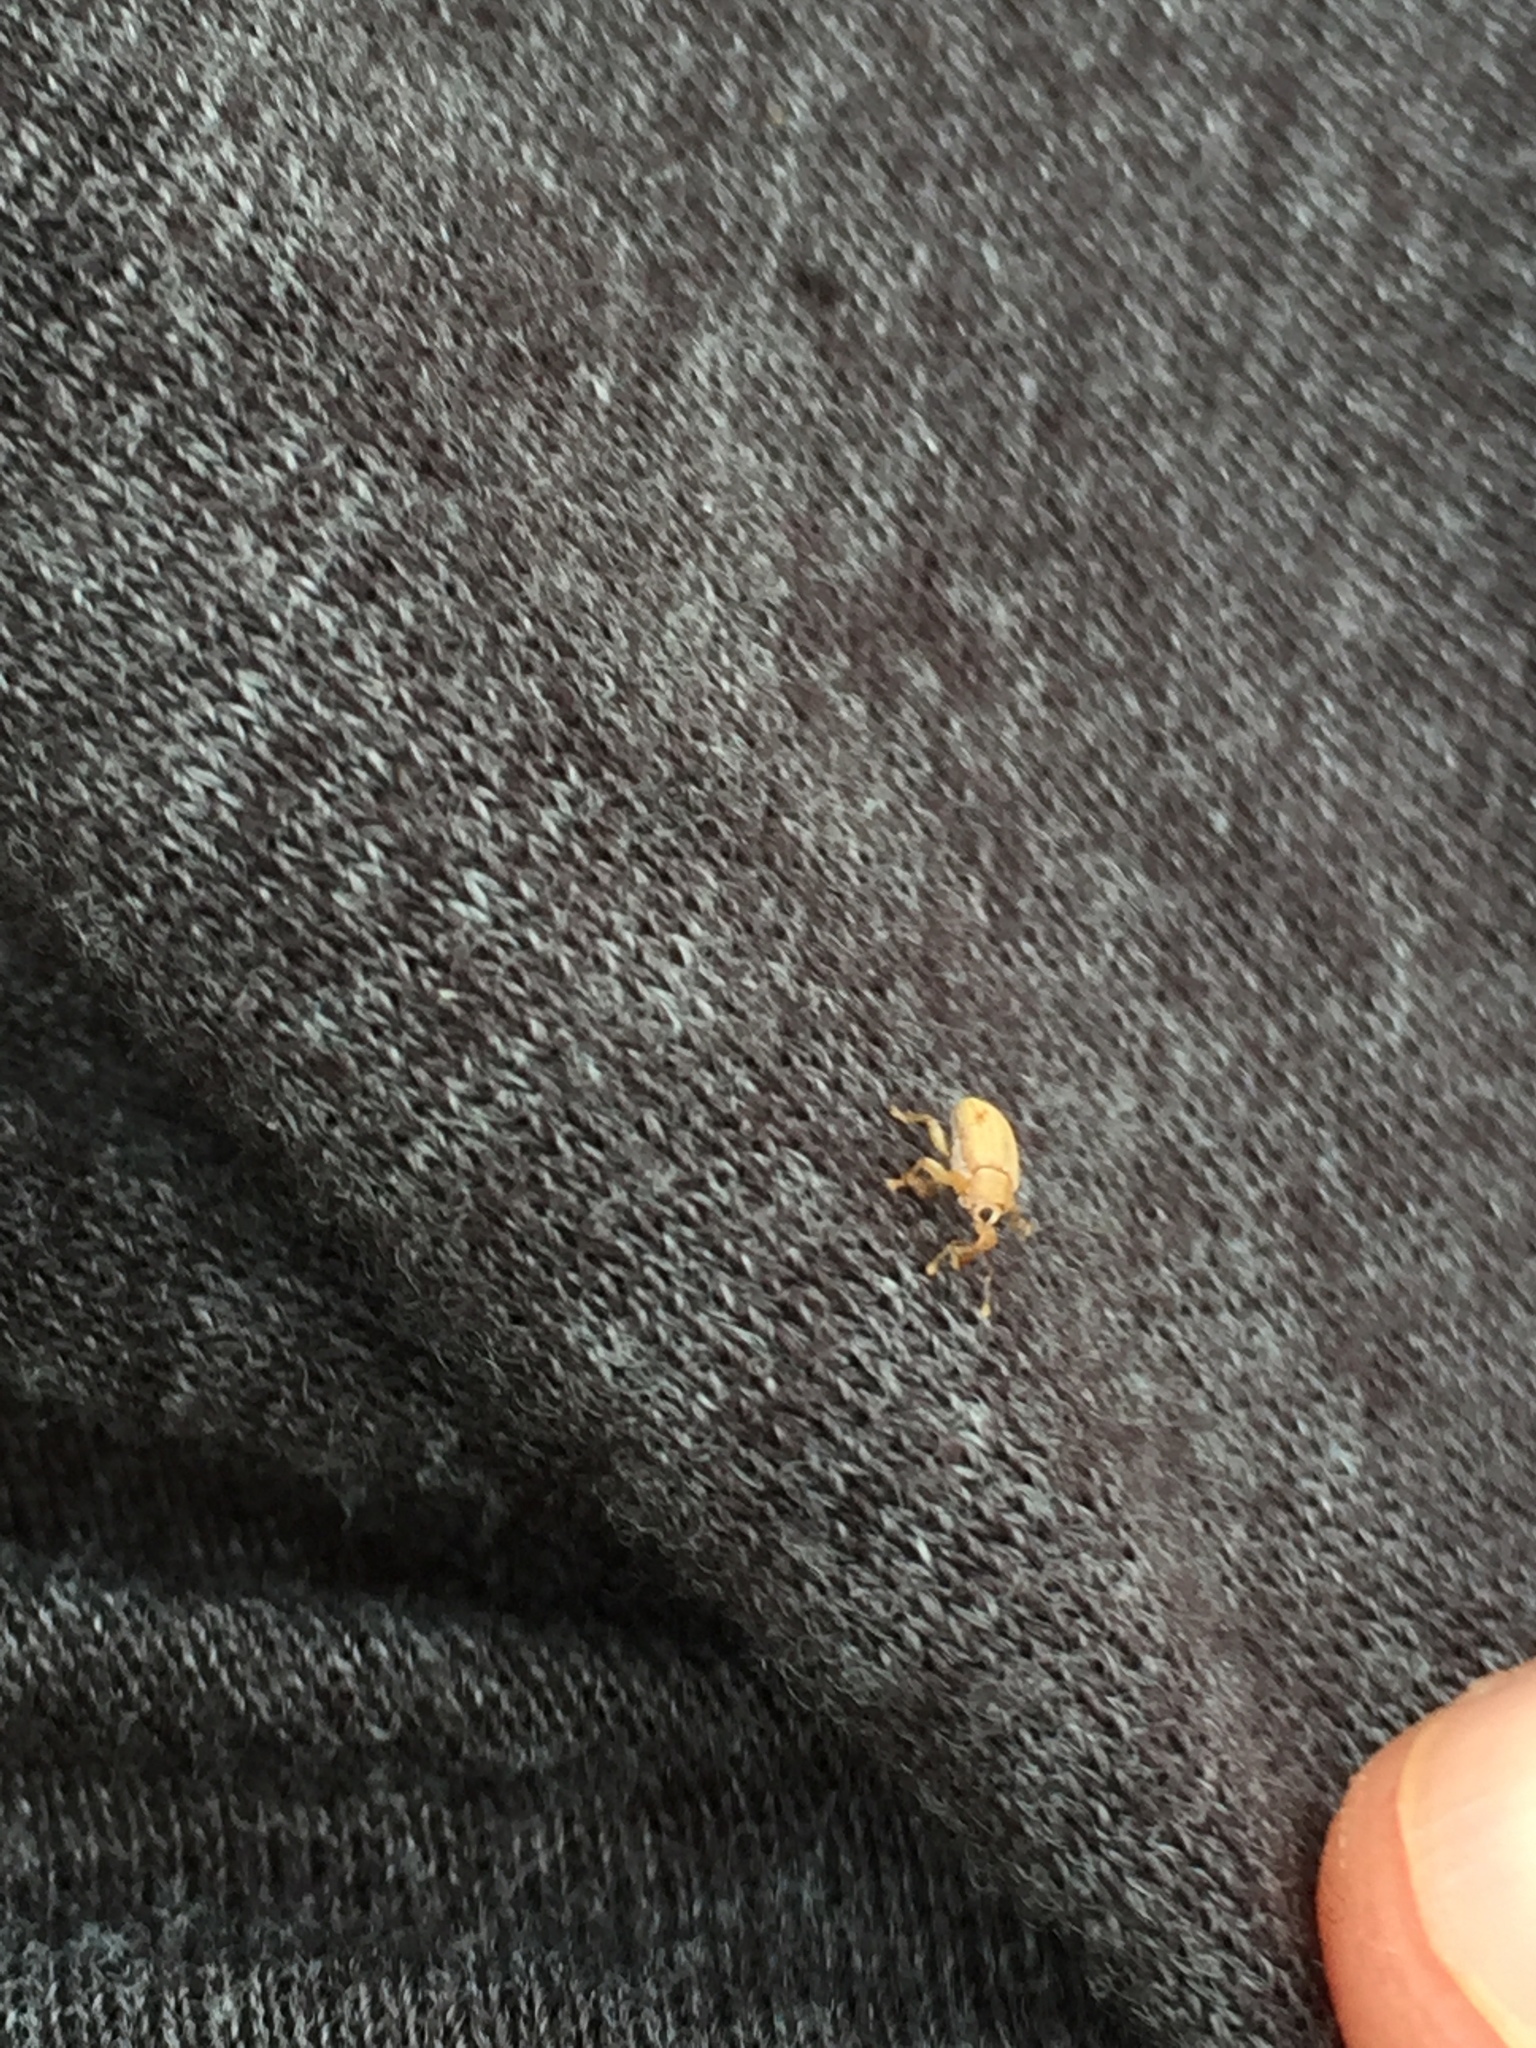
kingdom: Animalia
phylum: Arthropoda
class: Insecta
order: Coleoptera
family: Curculionidae
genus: Lignyodes
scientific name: Lignyodes helvolus
